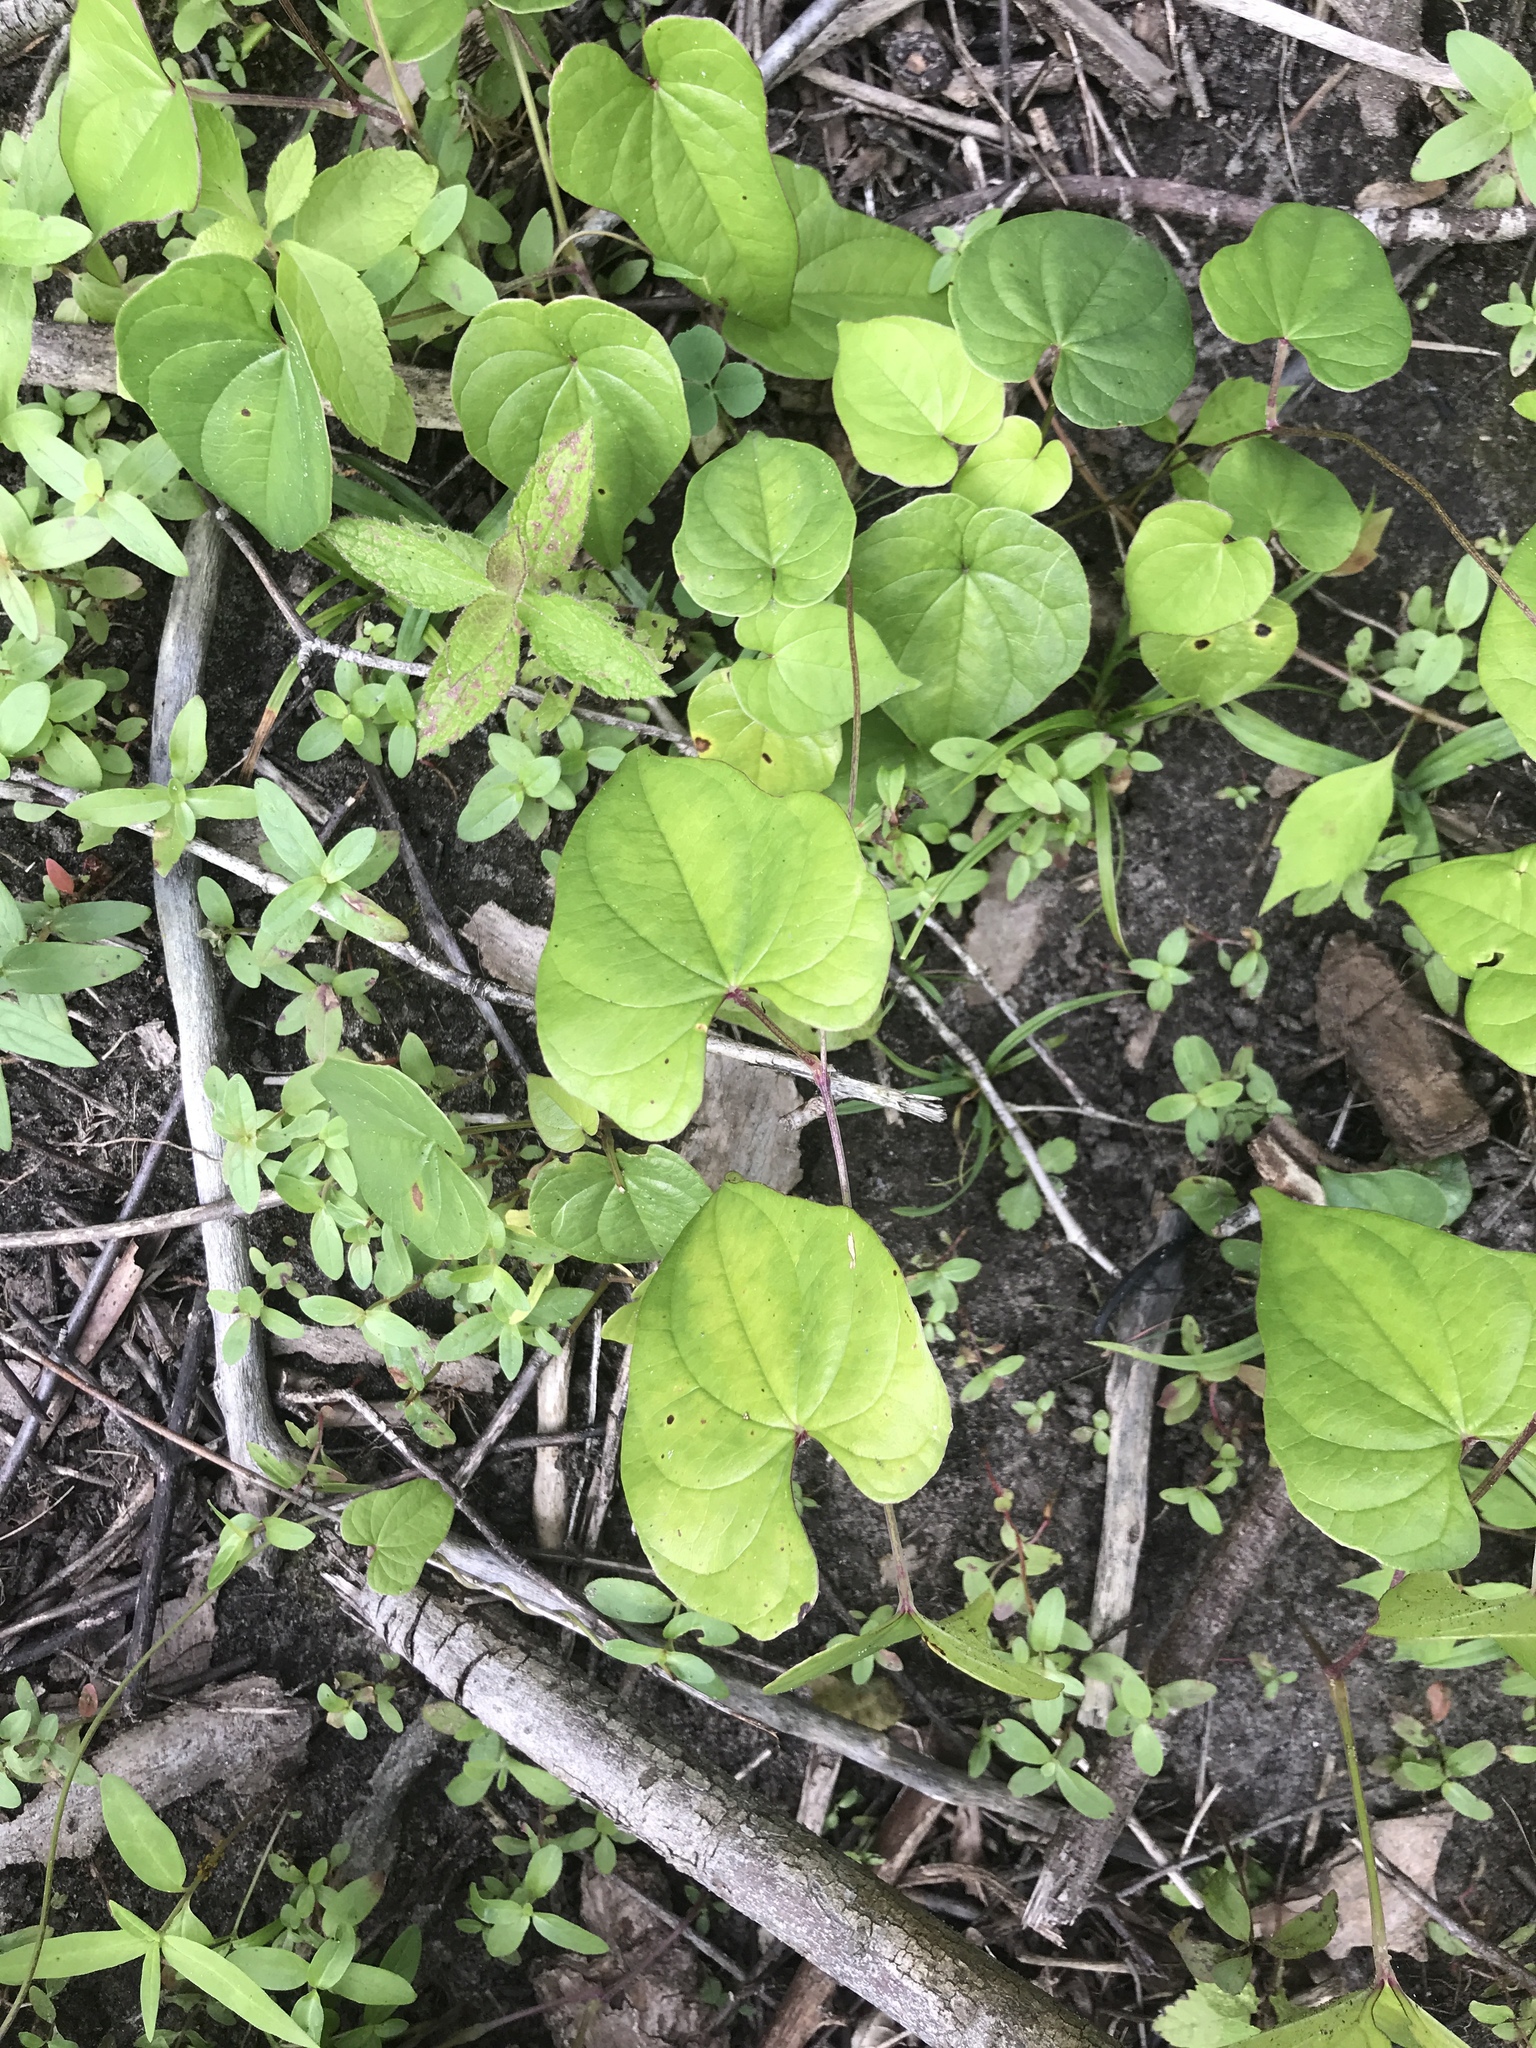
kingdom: Plantae
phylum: Tracheophyta
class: Liliopsida
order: Dioscoreales
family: Dioscoreaceae
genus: Dioscorea
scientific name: Dioscorea polystachya
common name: Chinese yam
